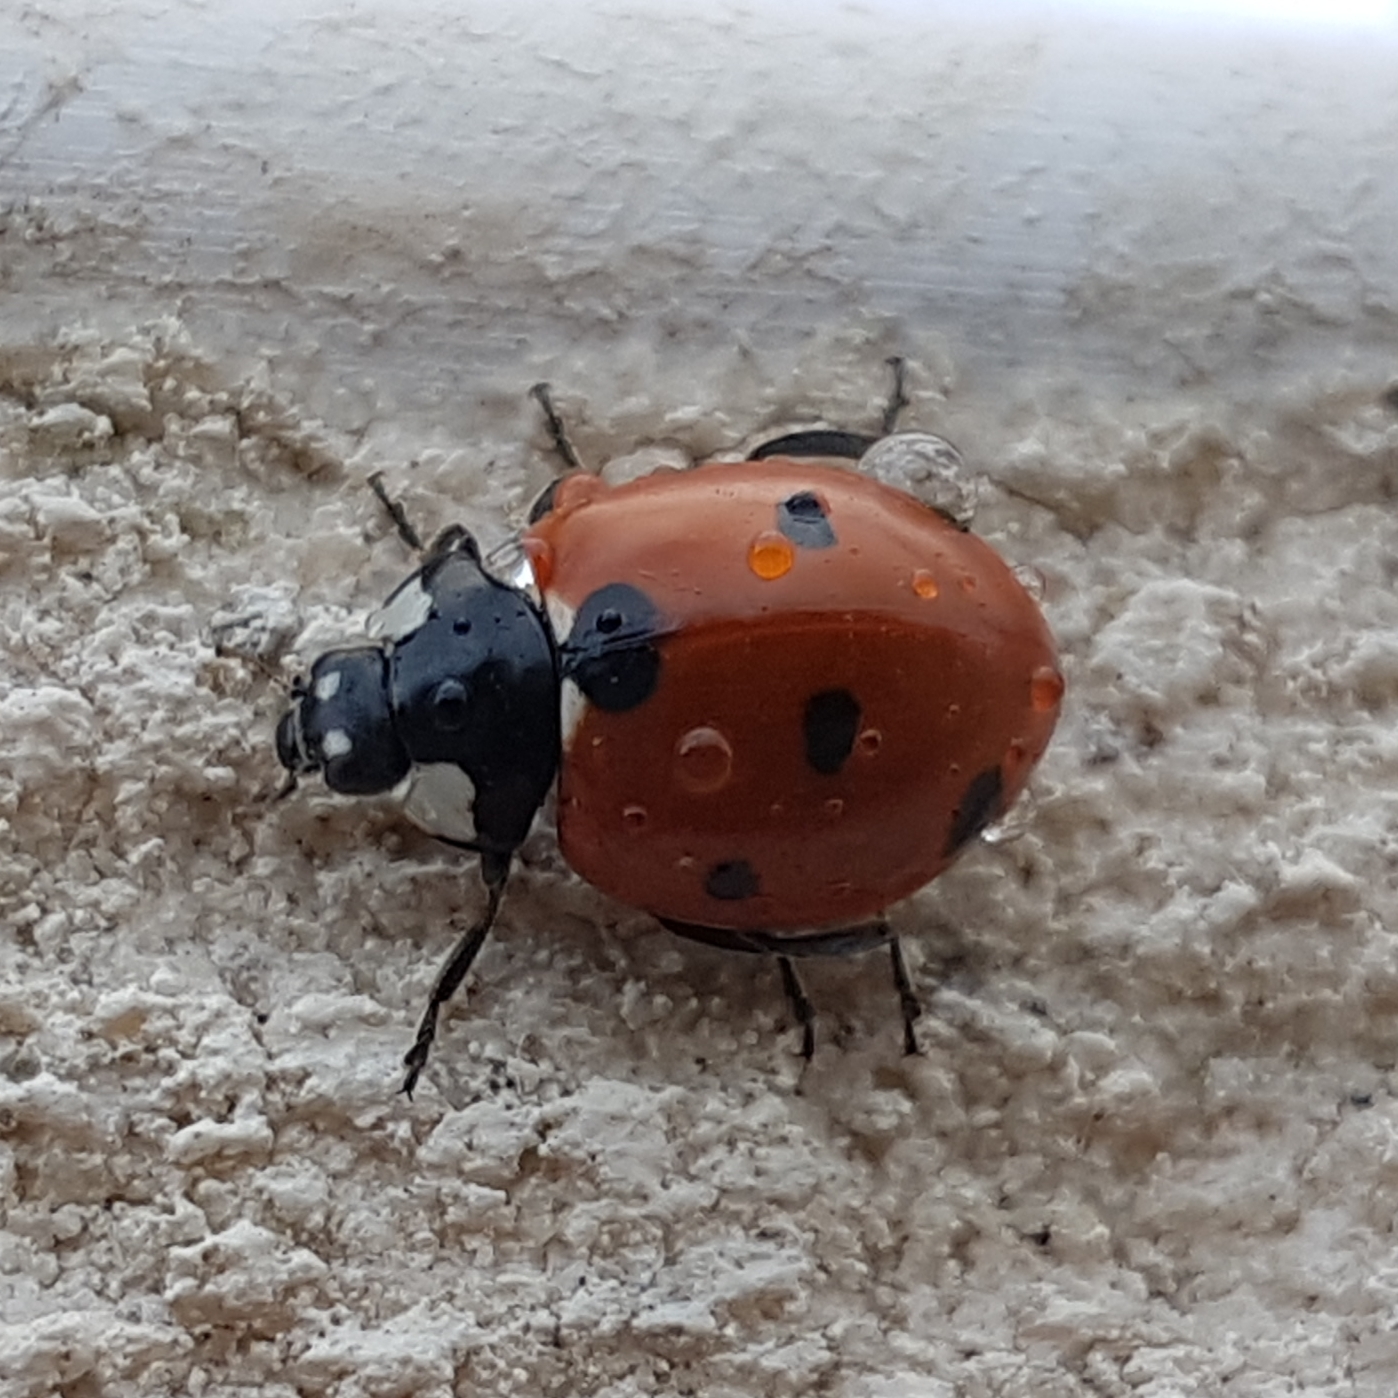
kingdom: Animalia
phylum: Arthropoda
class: Insecta
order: Coleoptera
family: Coccinellidae
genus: Coccinella
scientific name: Coccinella septempunctata
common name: Sevenspotted lady beetle
